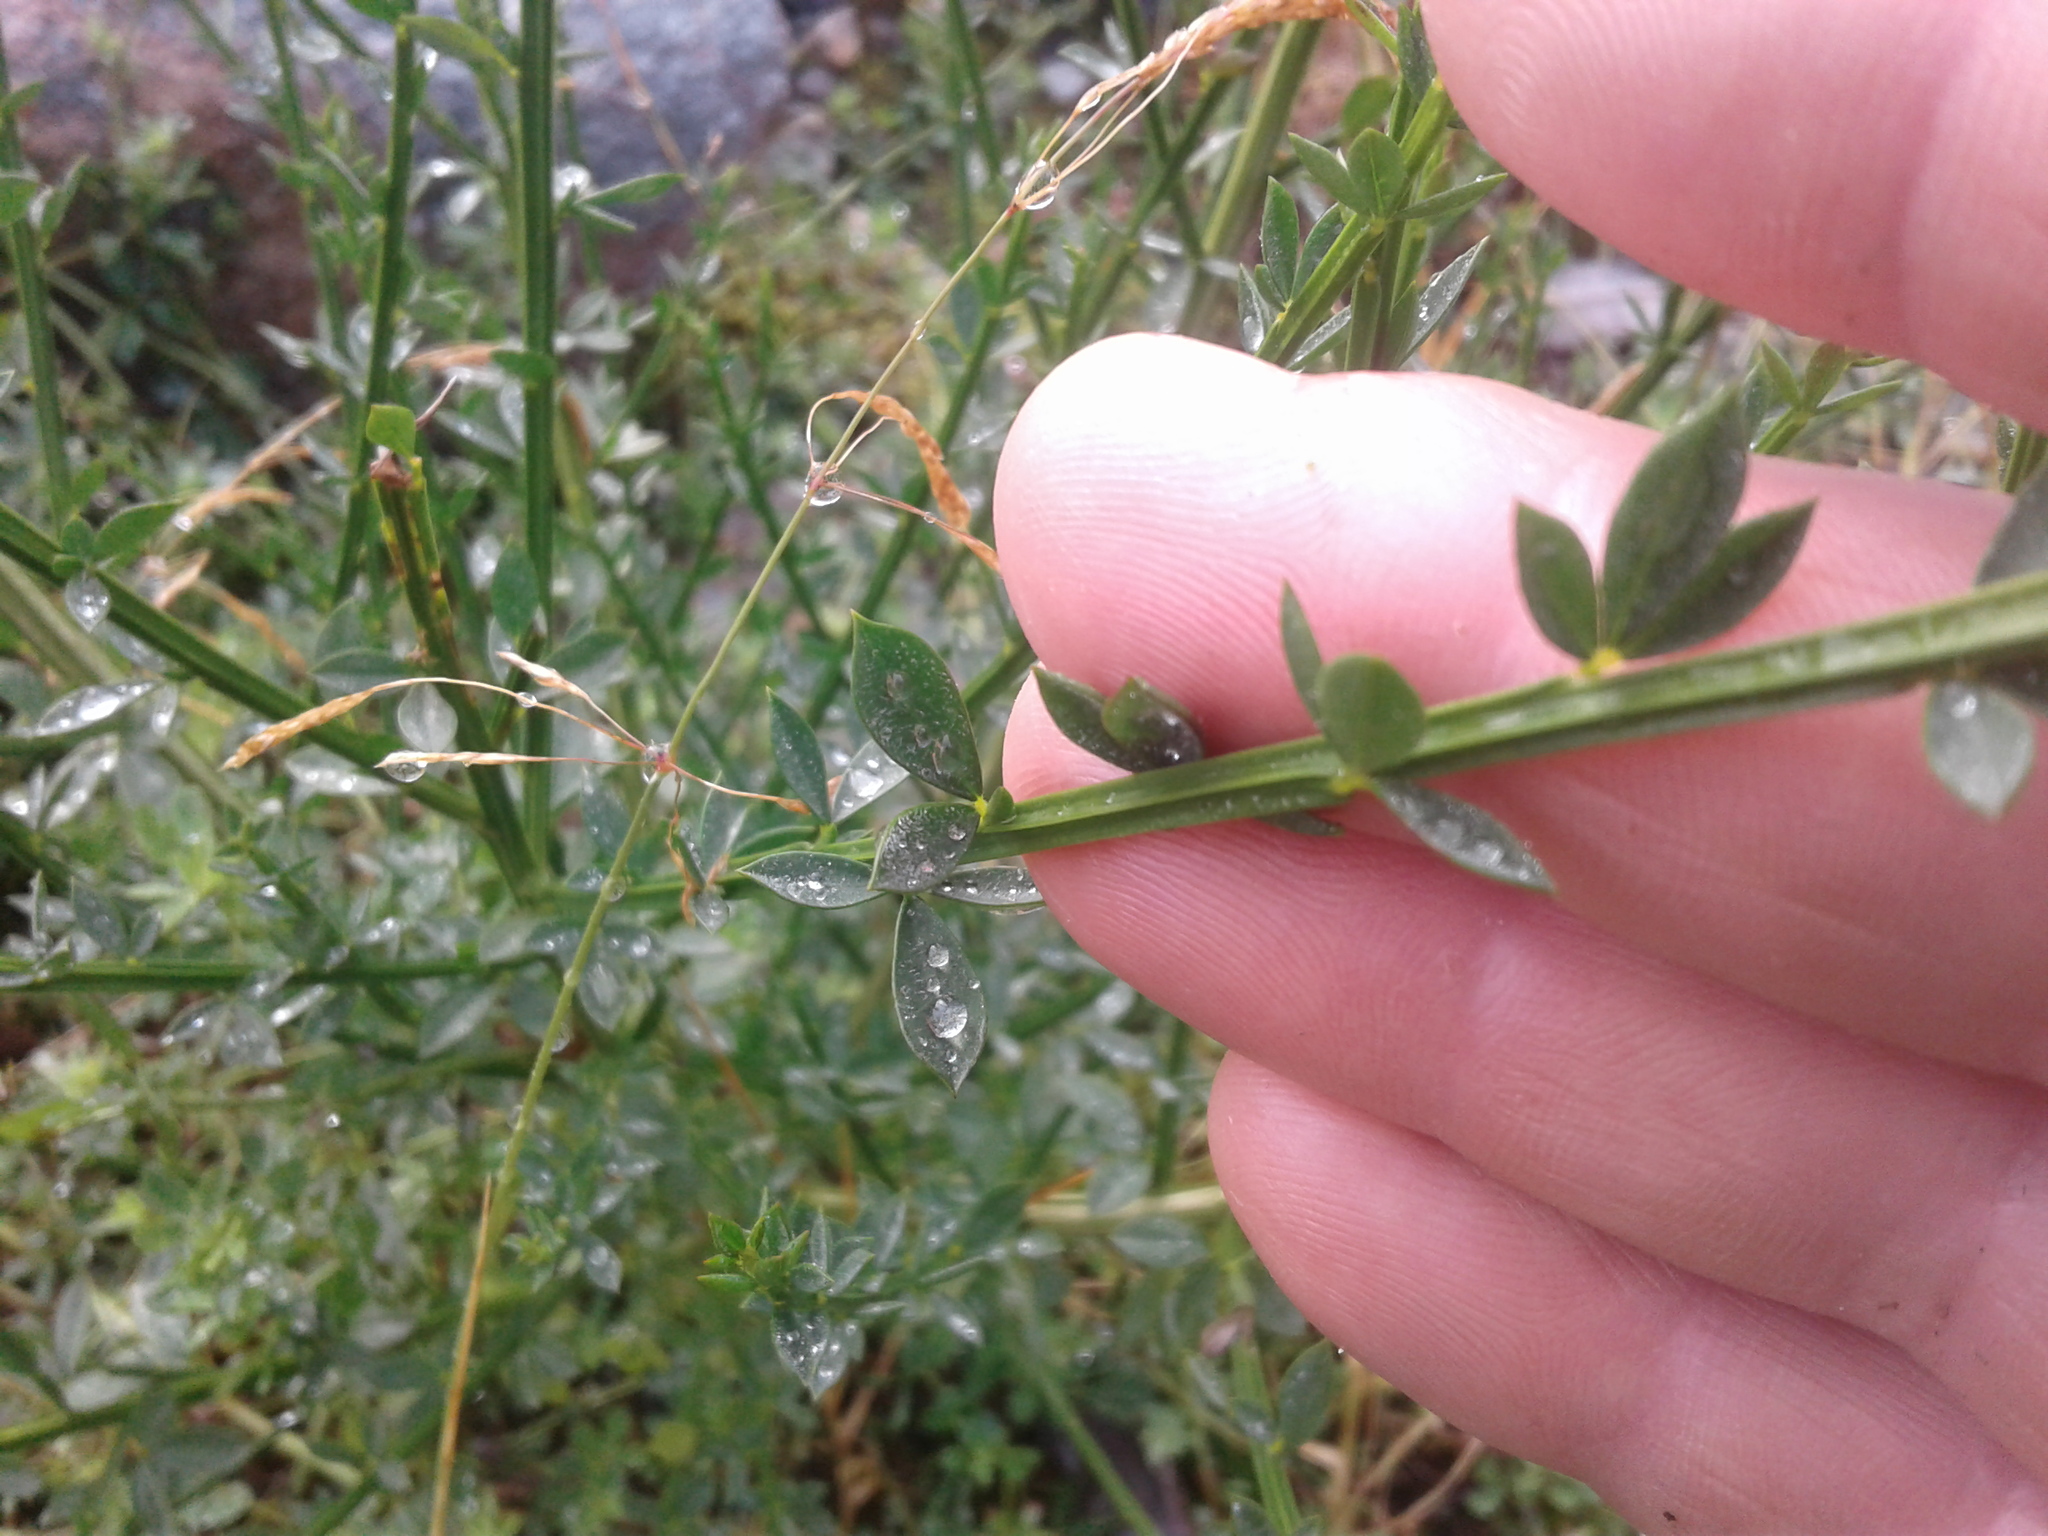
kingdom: Plantae
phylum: Tracheophyta
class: Magnoliopsida
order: Fabales
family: Fabaceae
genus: Cytisus
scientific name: Cytisus scoparius
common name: Scotch broom
